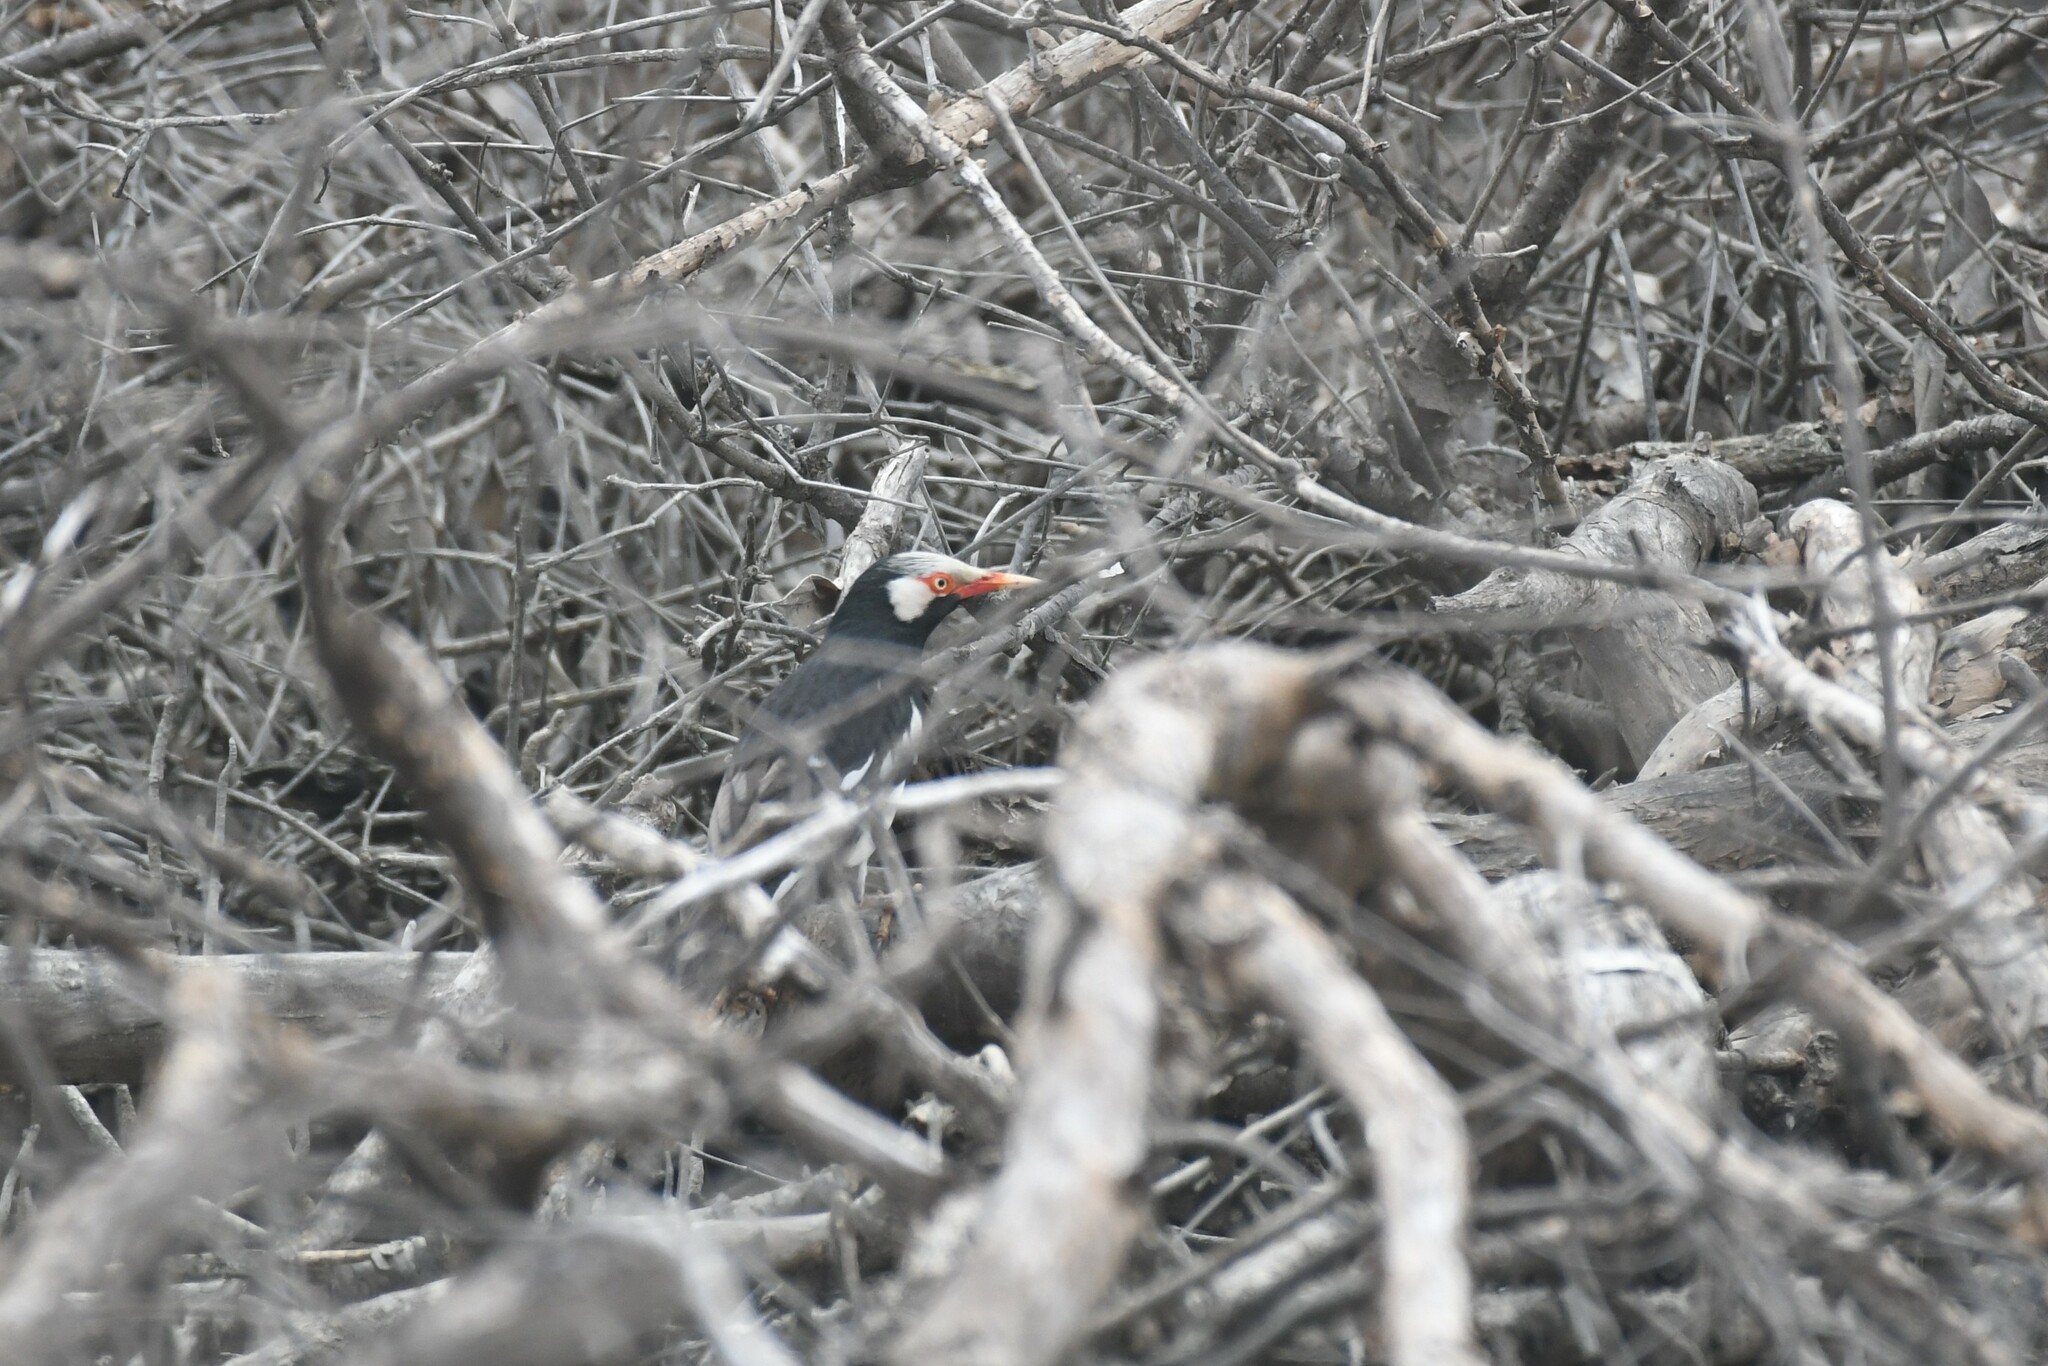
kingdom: Animalia
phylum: Chordata
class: Aves
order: Passeriformes
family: Sturnidae
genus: Gracupica
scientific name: Gracupica contra
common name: Pied myna
